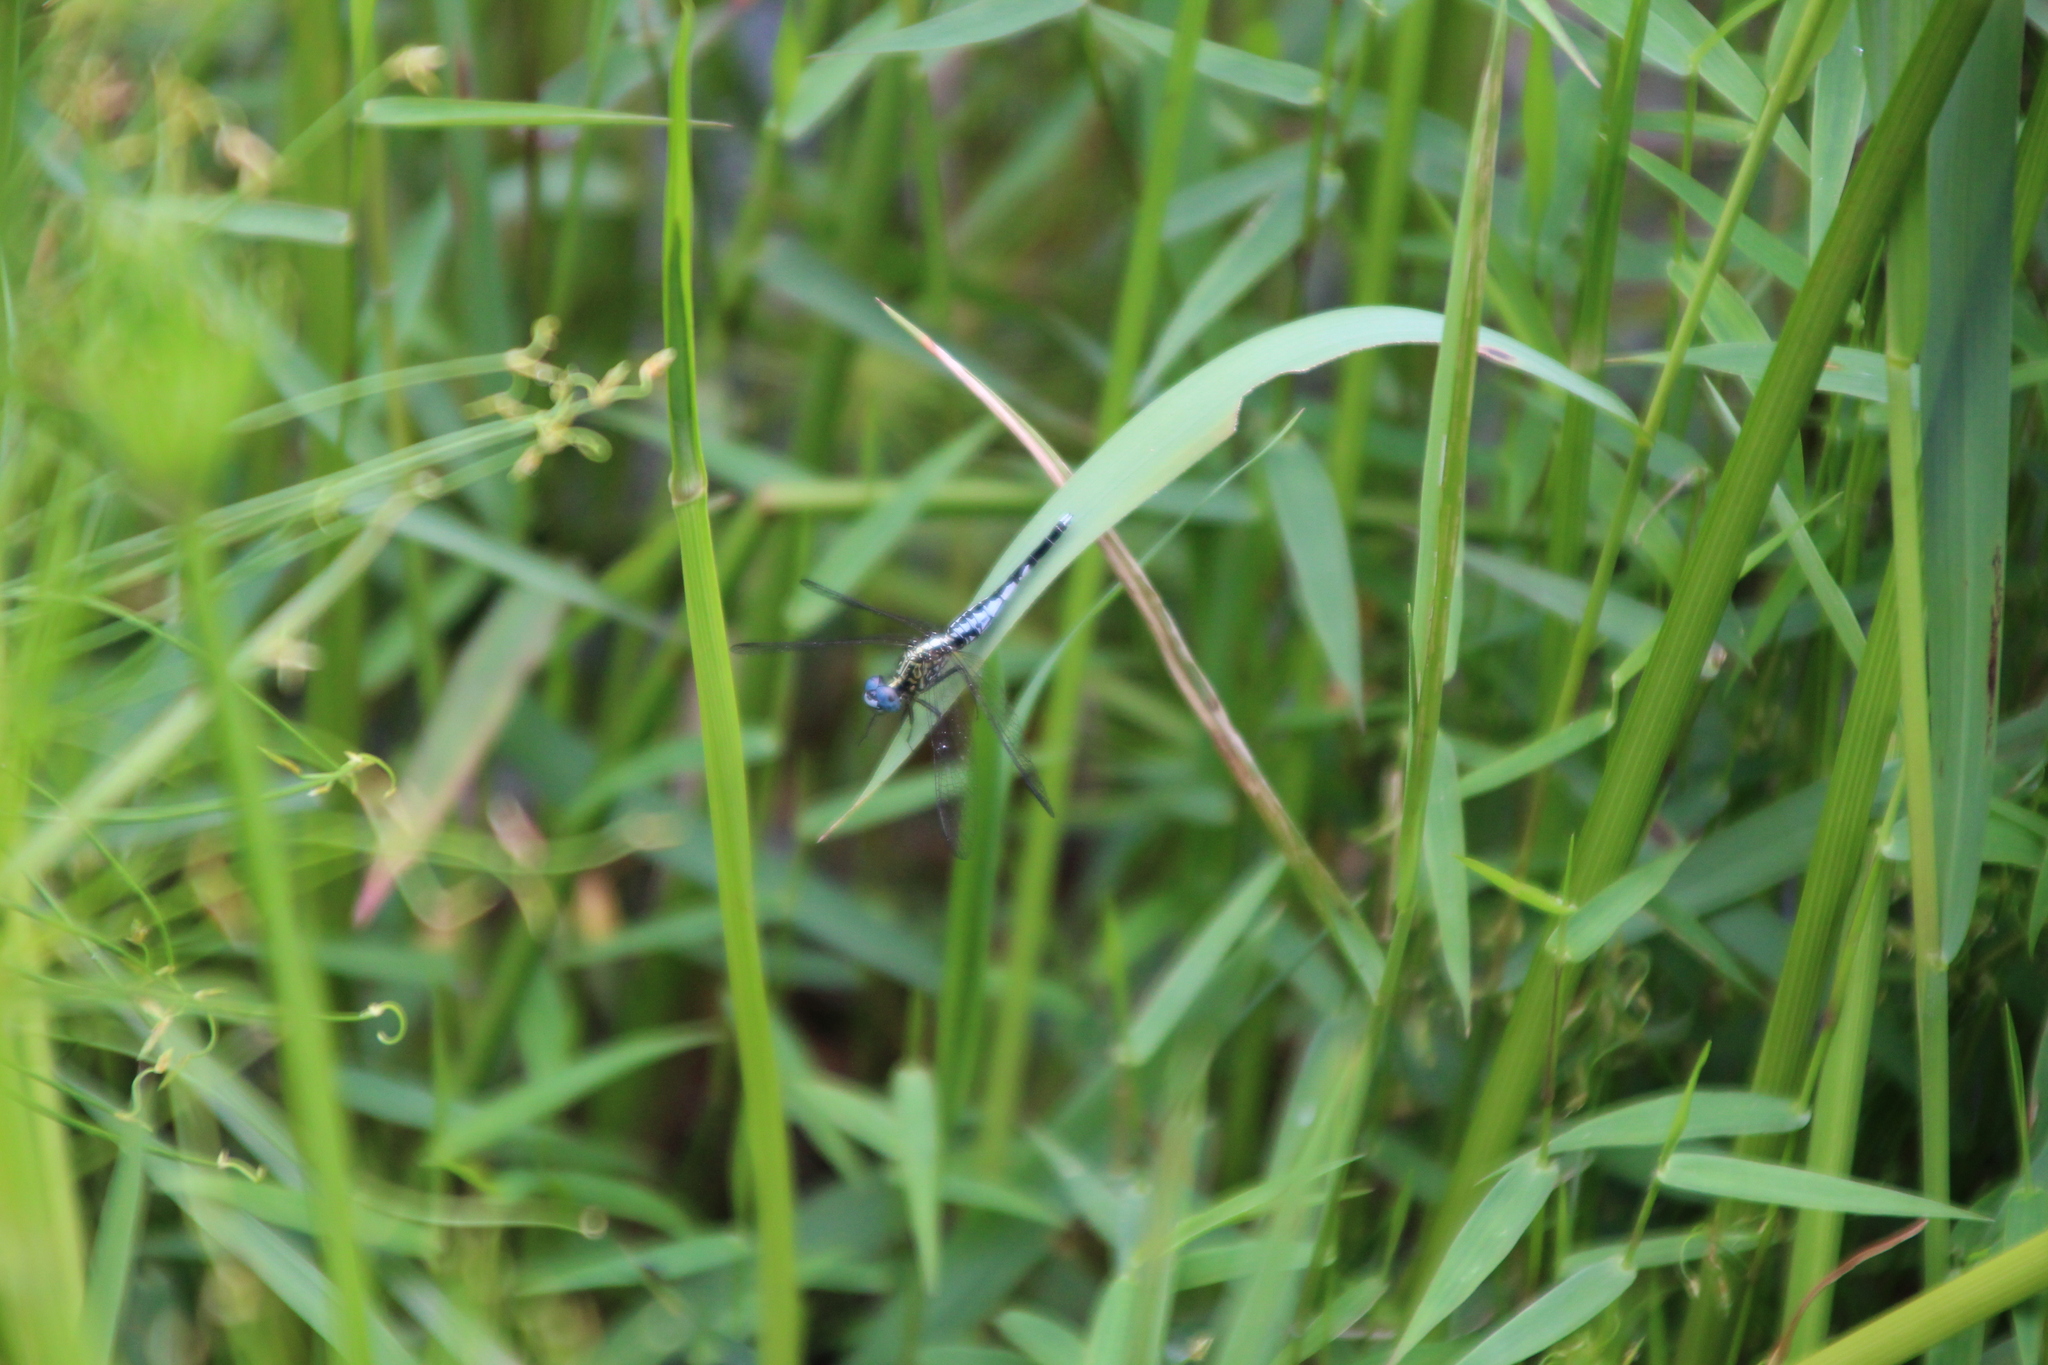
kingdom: Animalia
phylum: Arthropoda
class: Insecta
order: Odonata
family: Libellulidae
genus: Acisoma
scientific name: Acisoma variegatum
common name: Slender pintail
